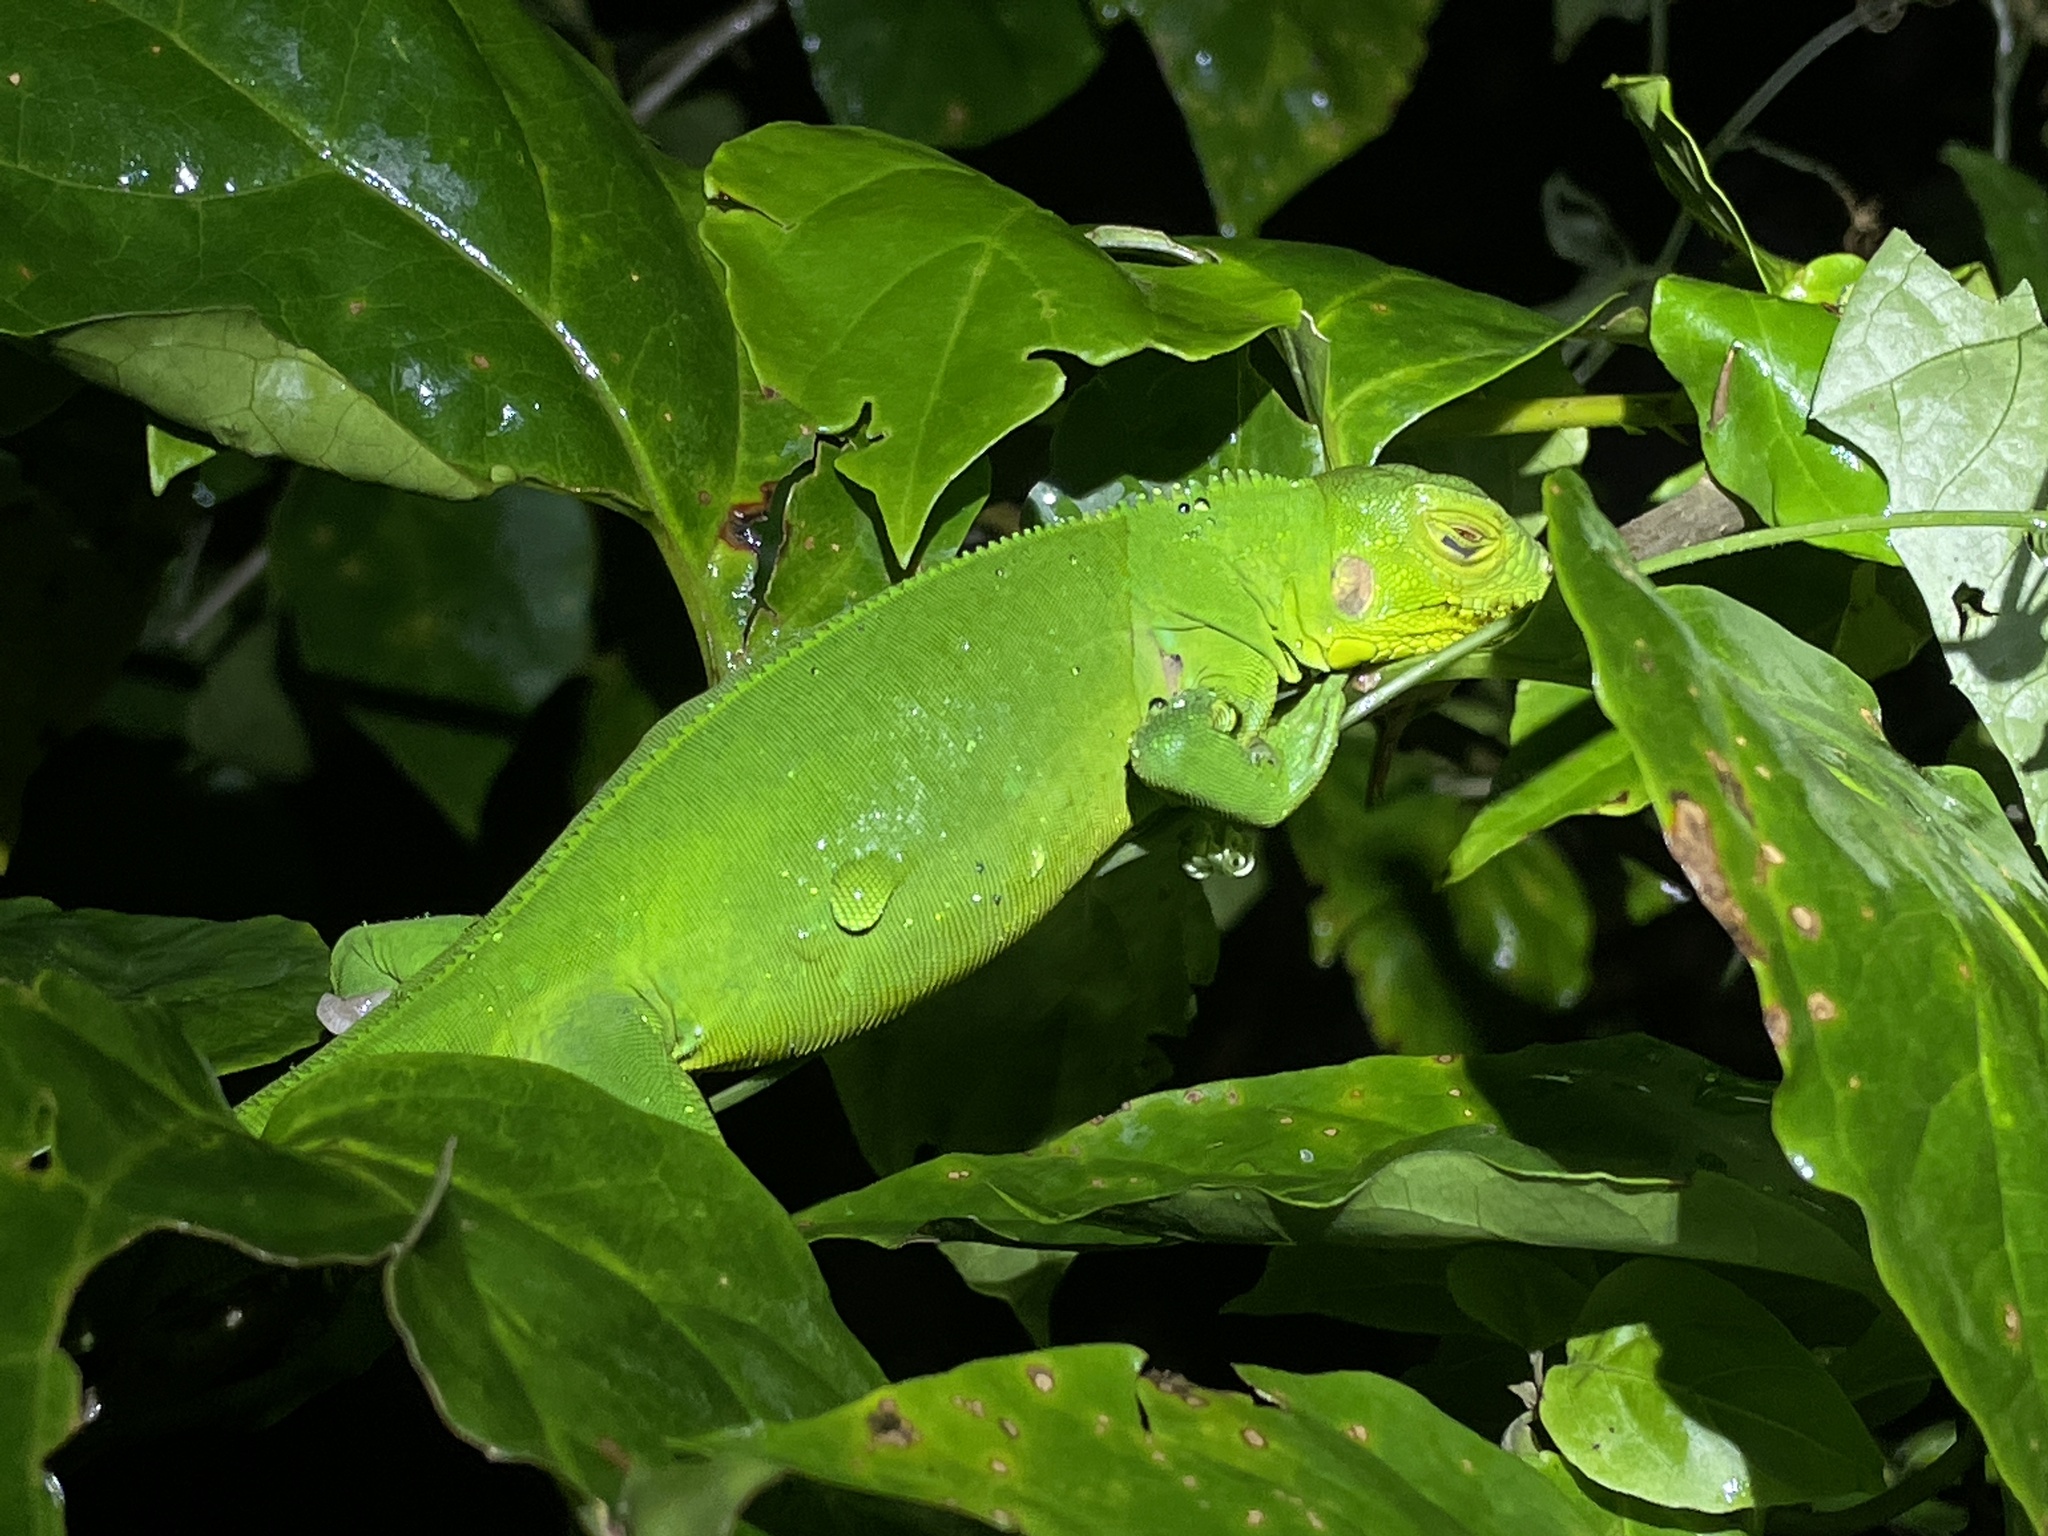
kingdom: Animalia
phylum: Chordata
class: Squamata
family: Iguanidae
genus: Iguana
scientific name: Iguana iguana
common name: Green iguana
